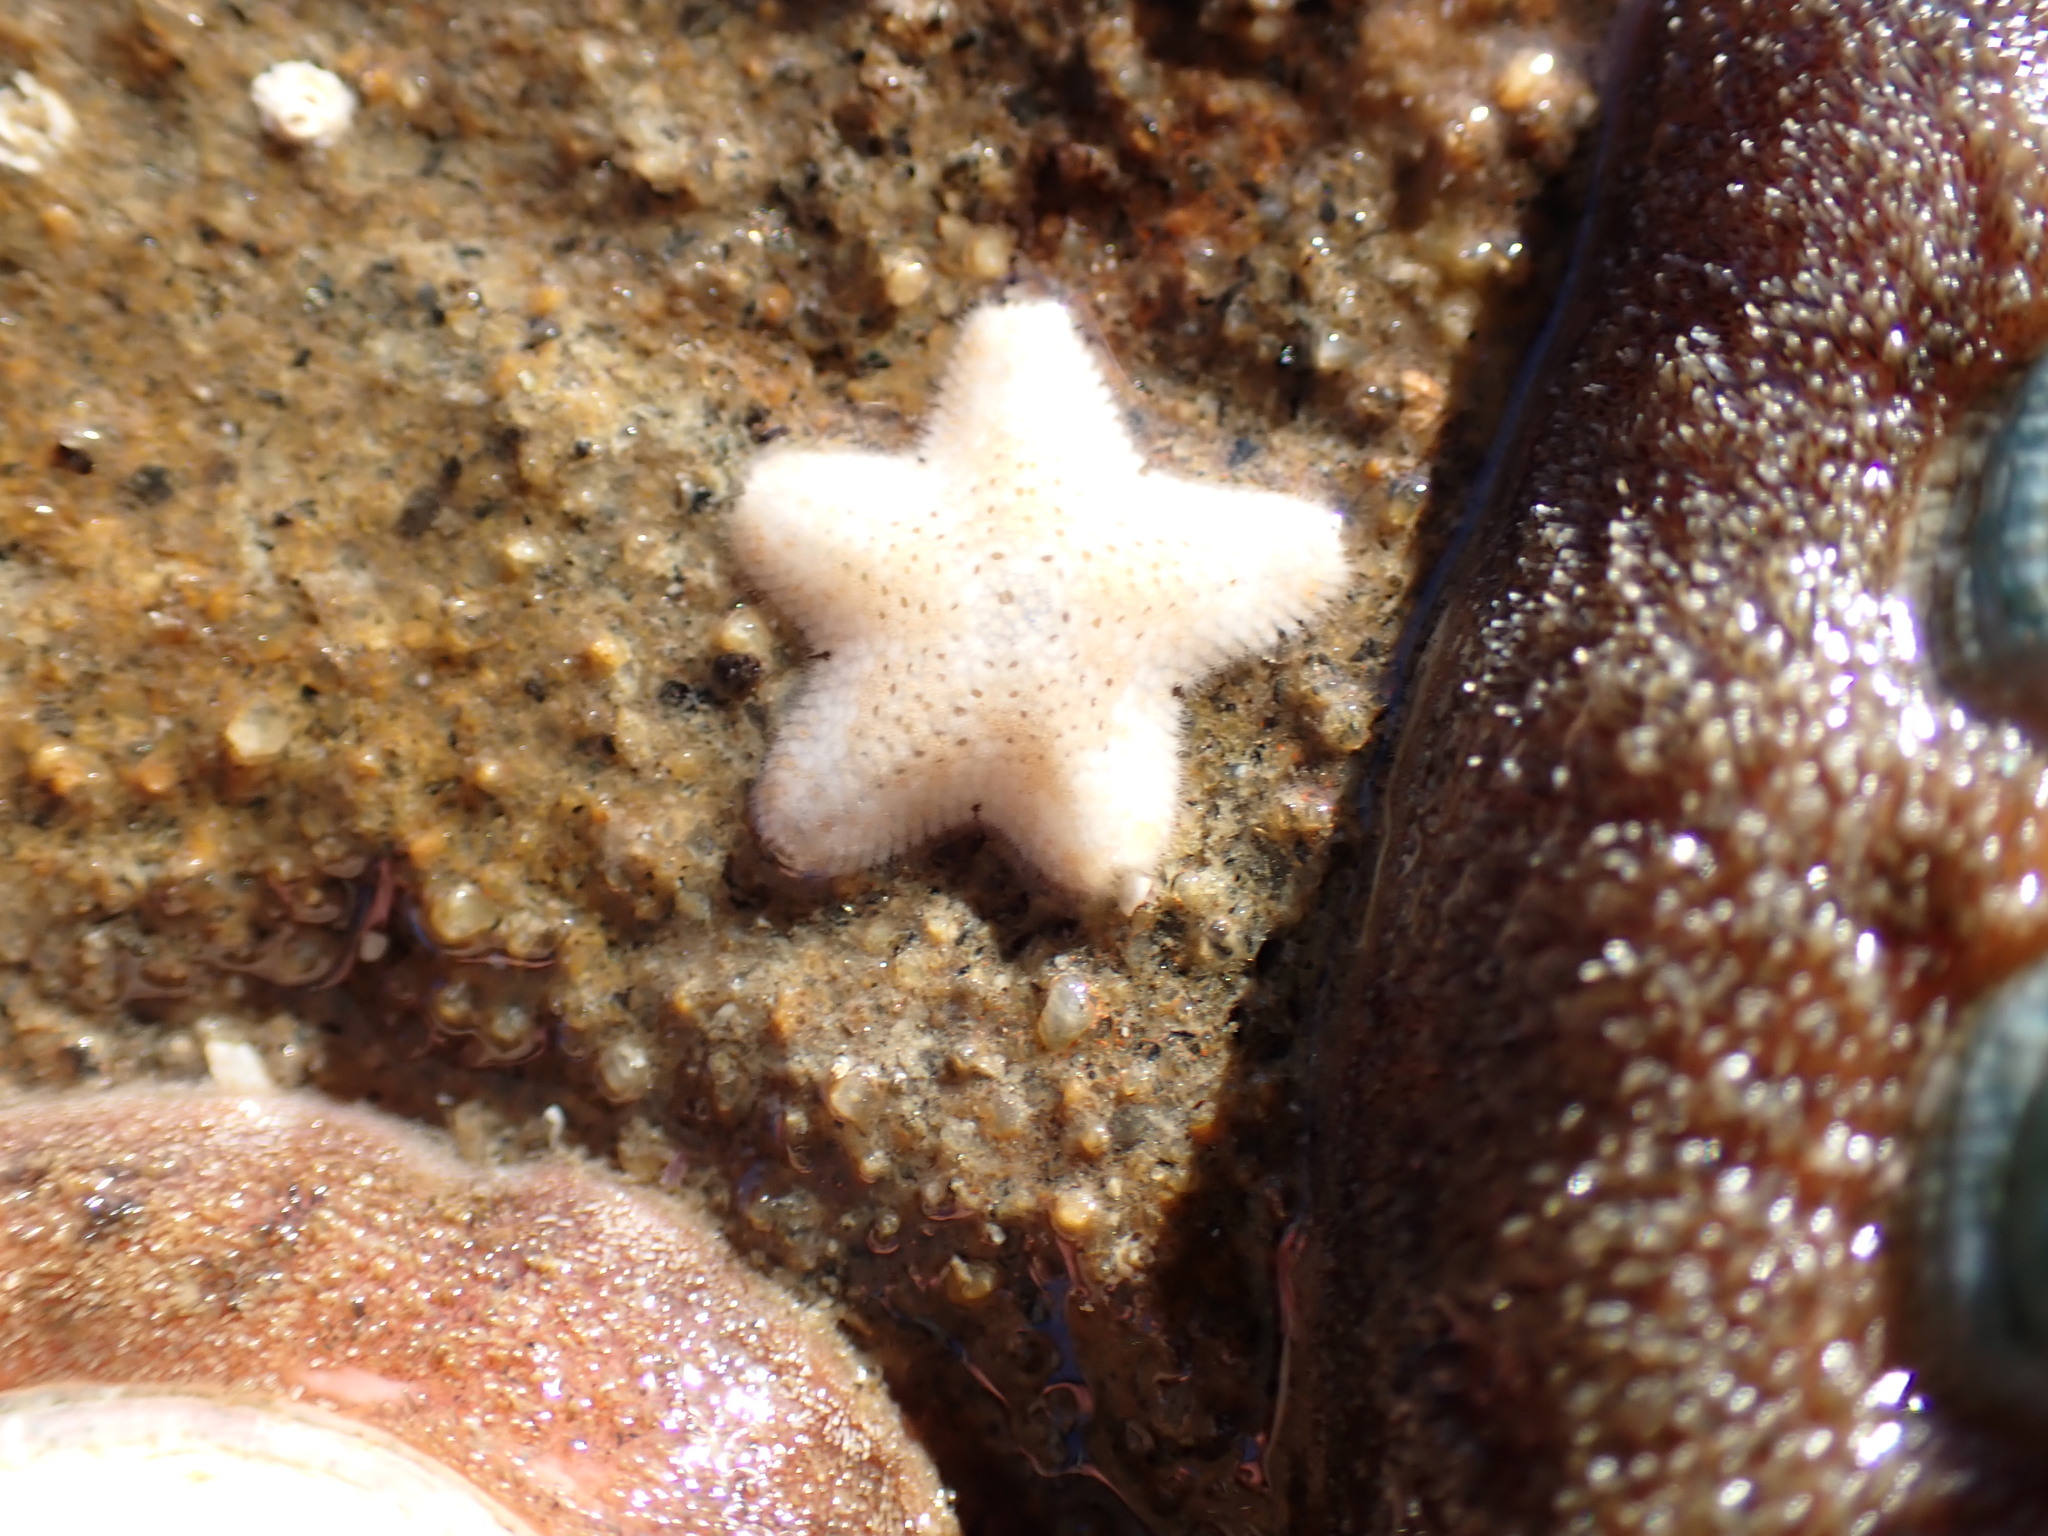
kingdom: Animalia
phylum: Echinodermata
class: Asteroidea
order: Valvatida
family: Asterinidae
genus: Patiria
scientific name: Patiria miniata
